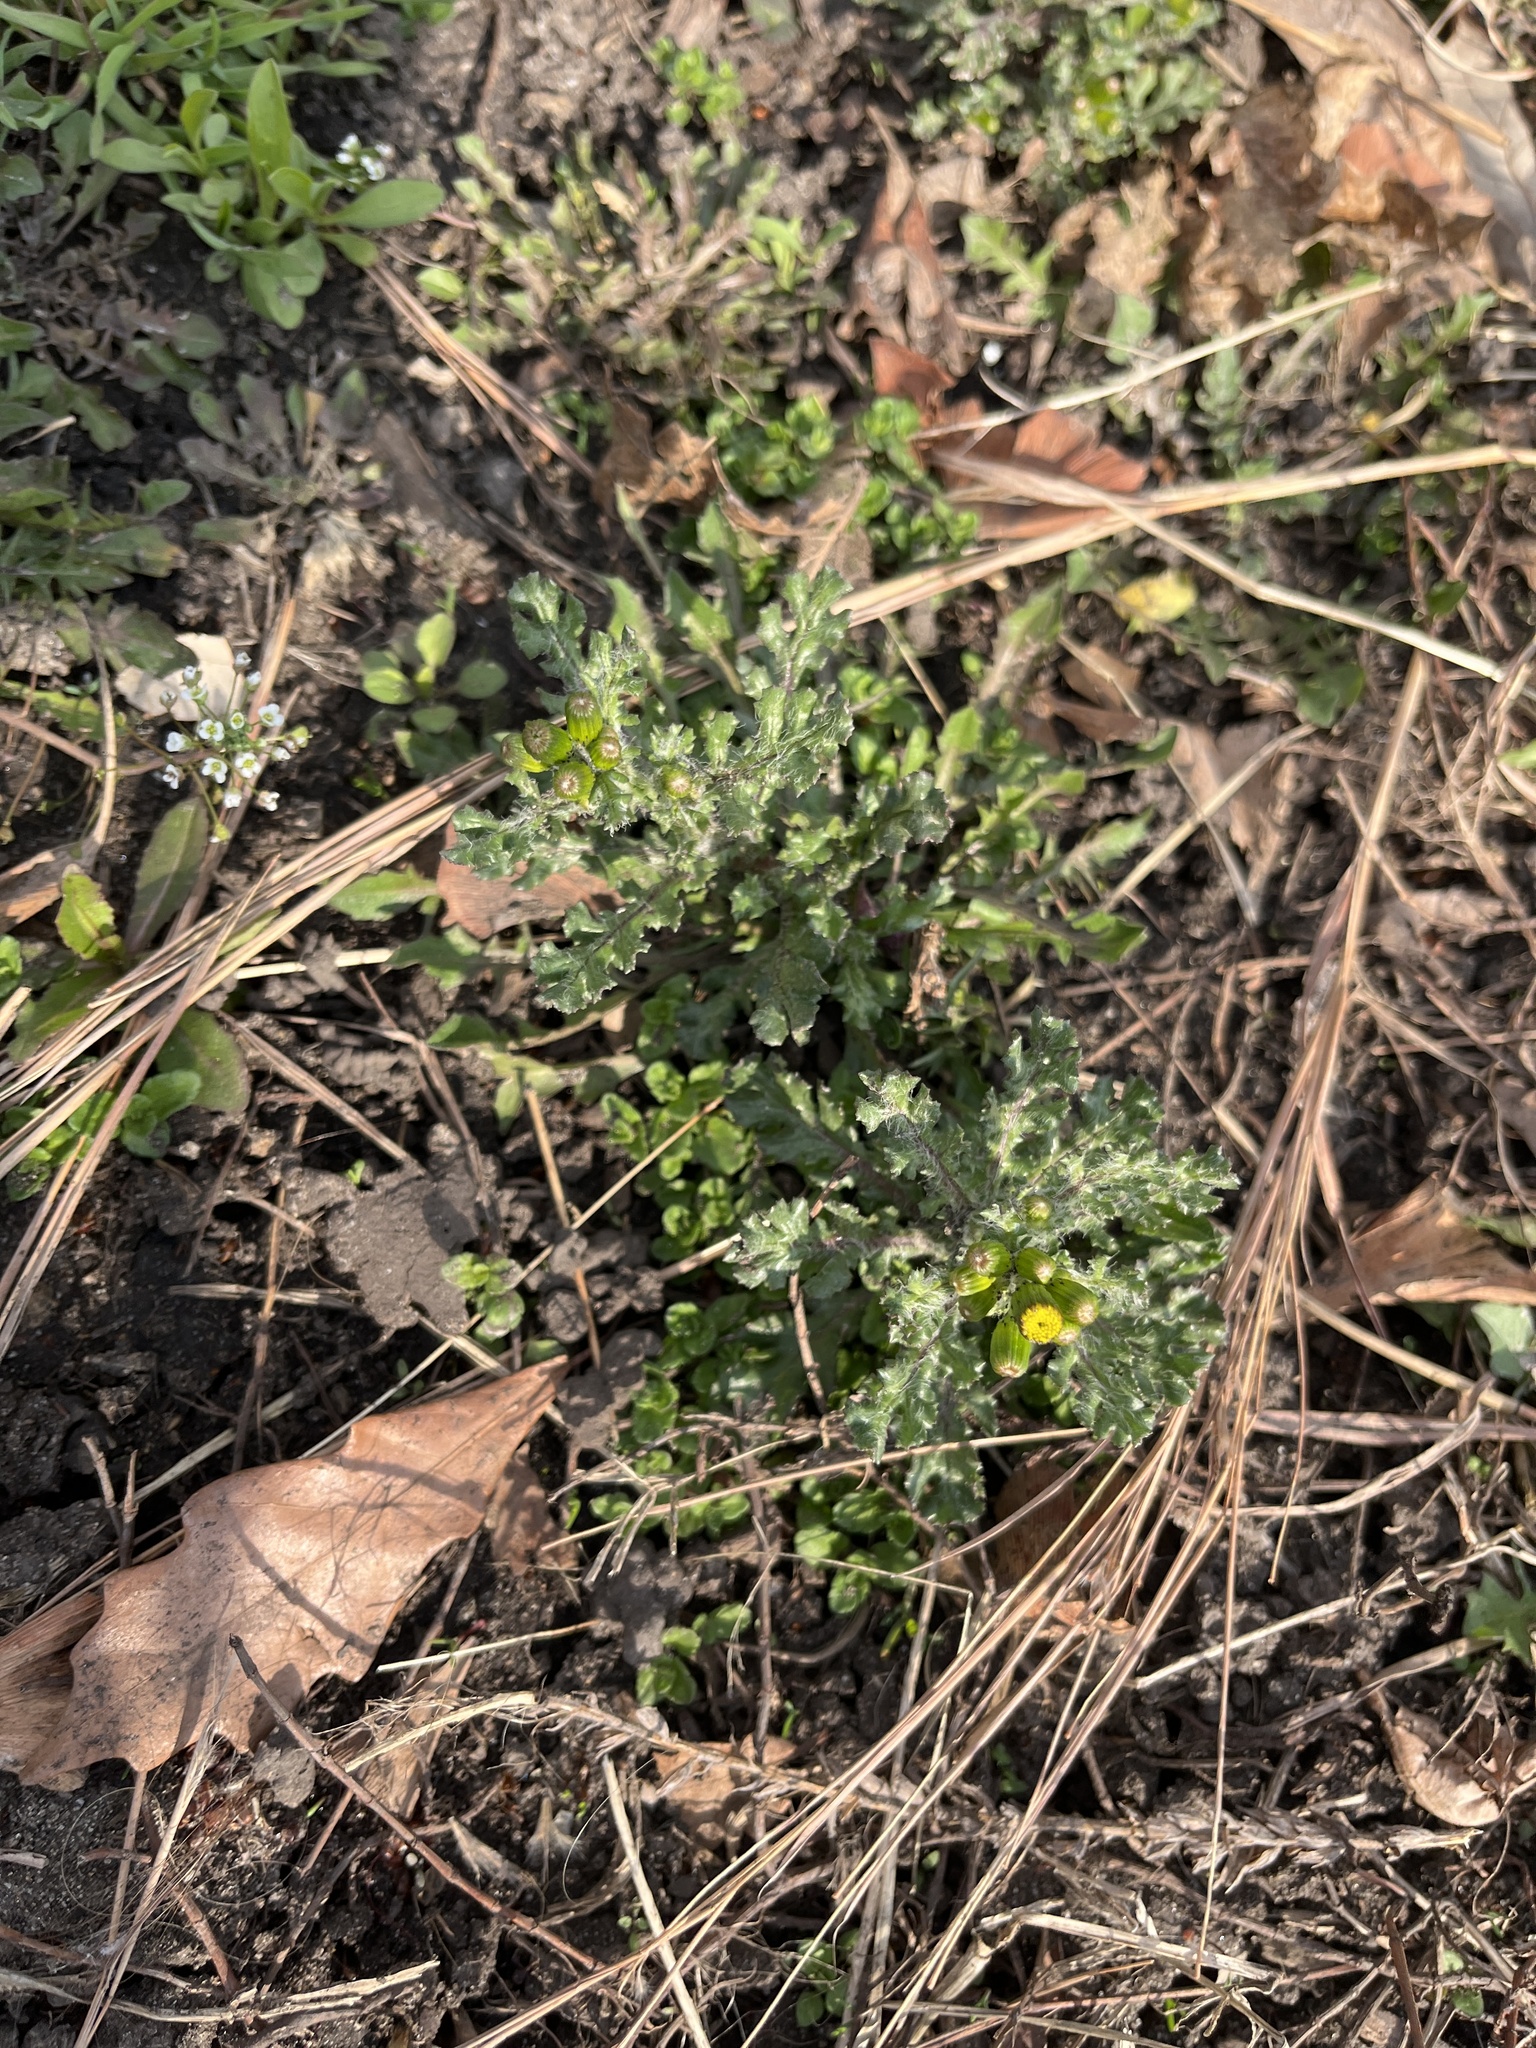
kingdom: Plantae
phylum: Tracheophyta
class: Magnoliopsida
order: Asterales
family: Asteraceae
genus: Senecio
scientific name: Senecio vulgaris
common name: Old-man-in-the-spring
